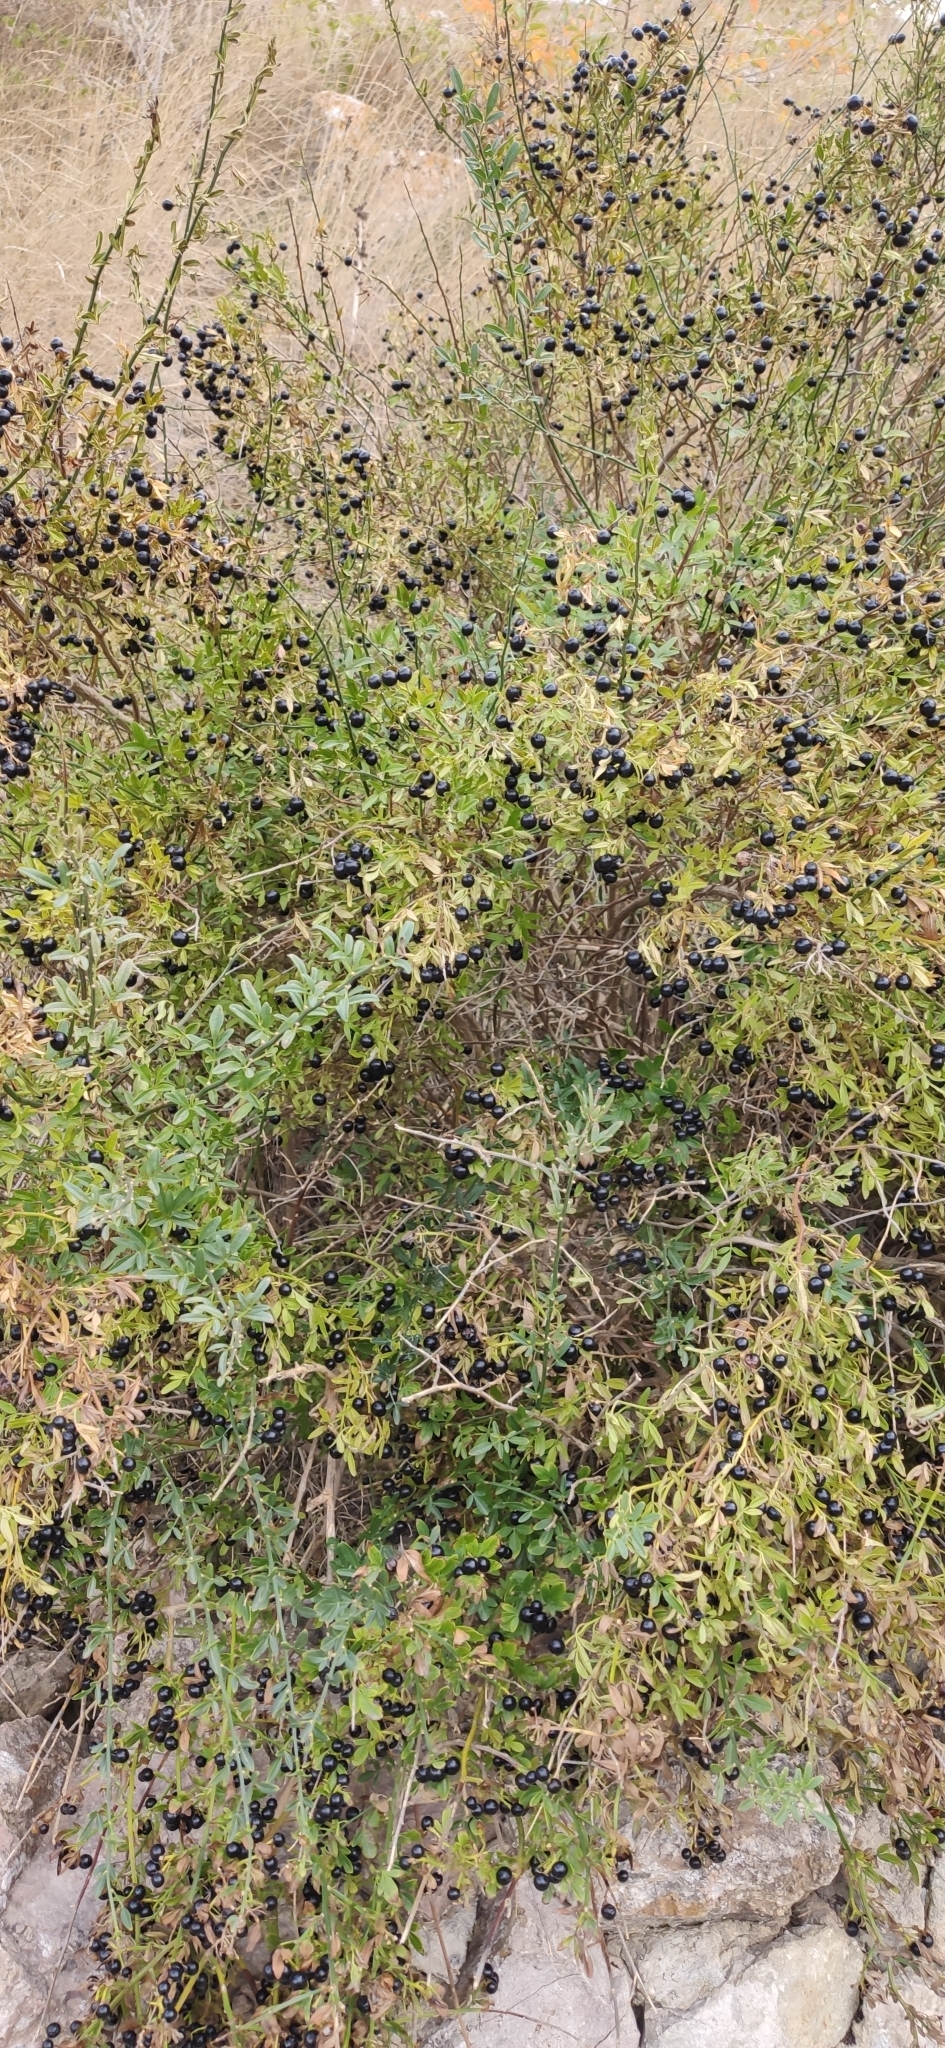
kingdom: Plantae
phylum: Tracheophyta
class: Magnoliopsida
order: Lamiales
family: Oleaceae
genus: Chrysojasminum
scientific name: Chrysojasminum fruticans
